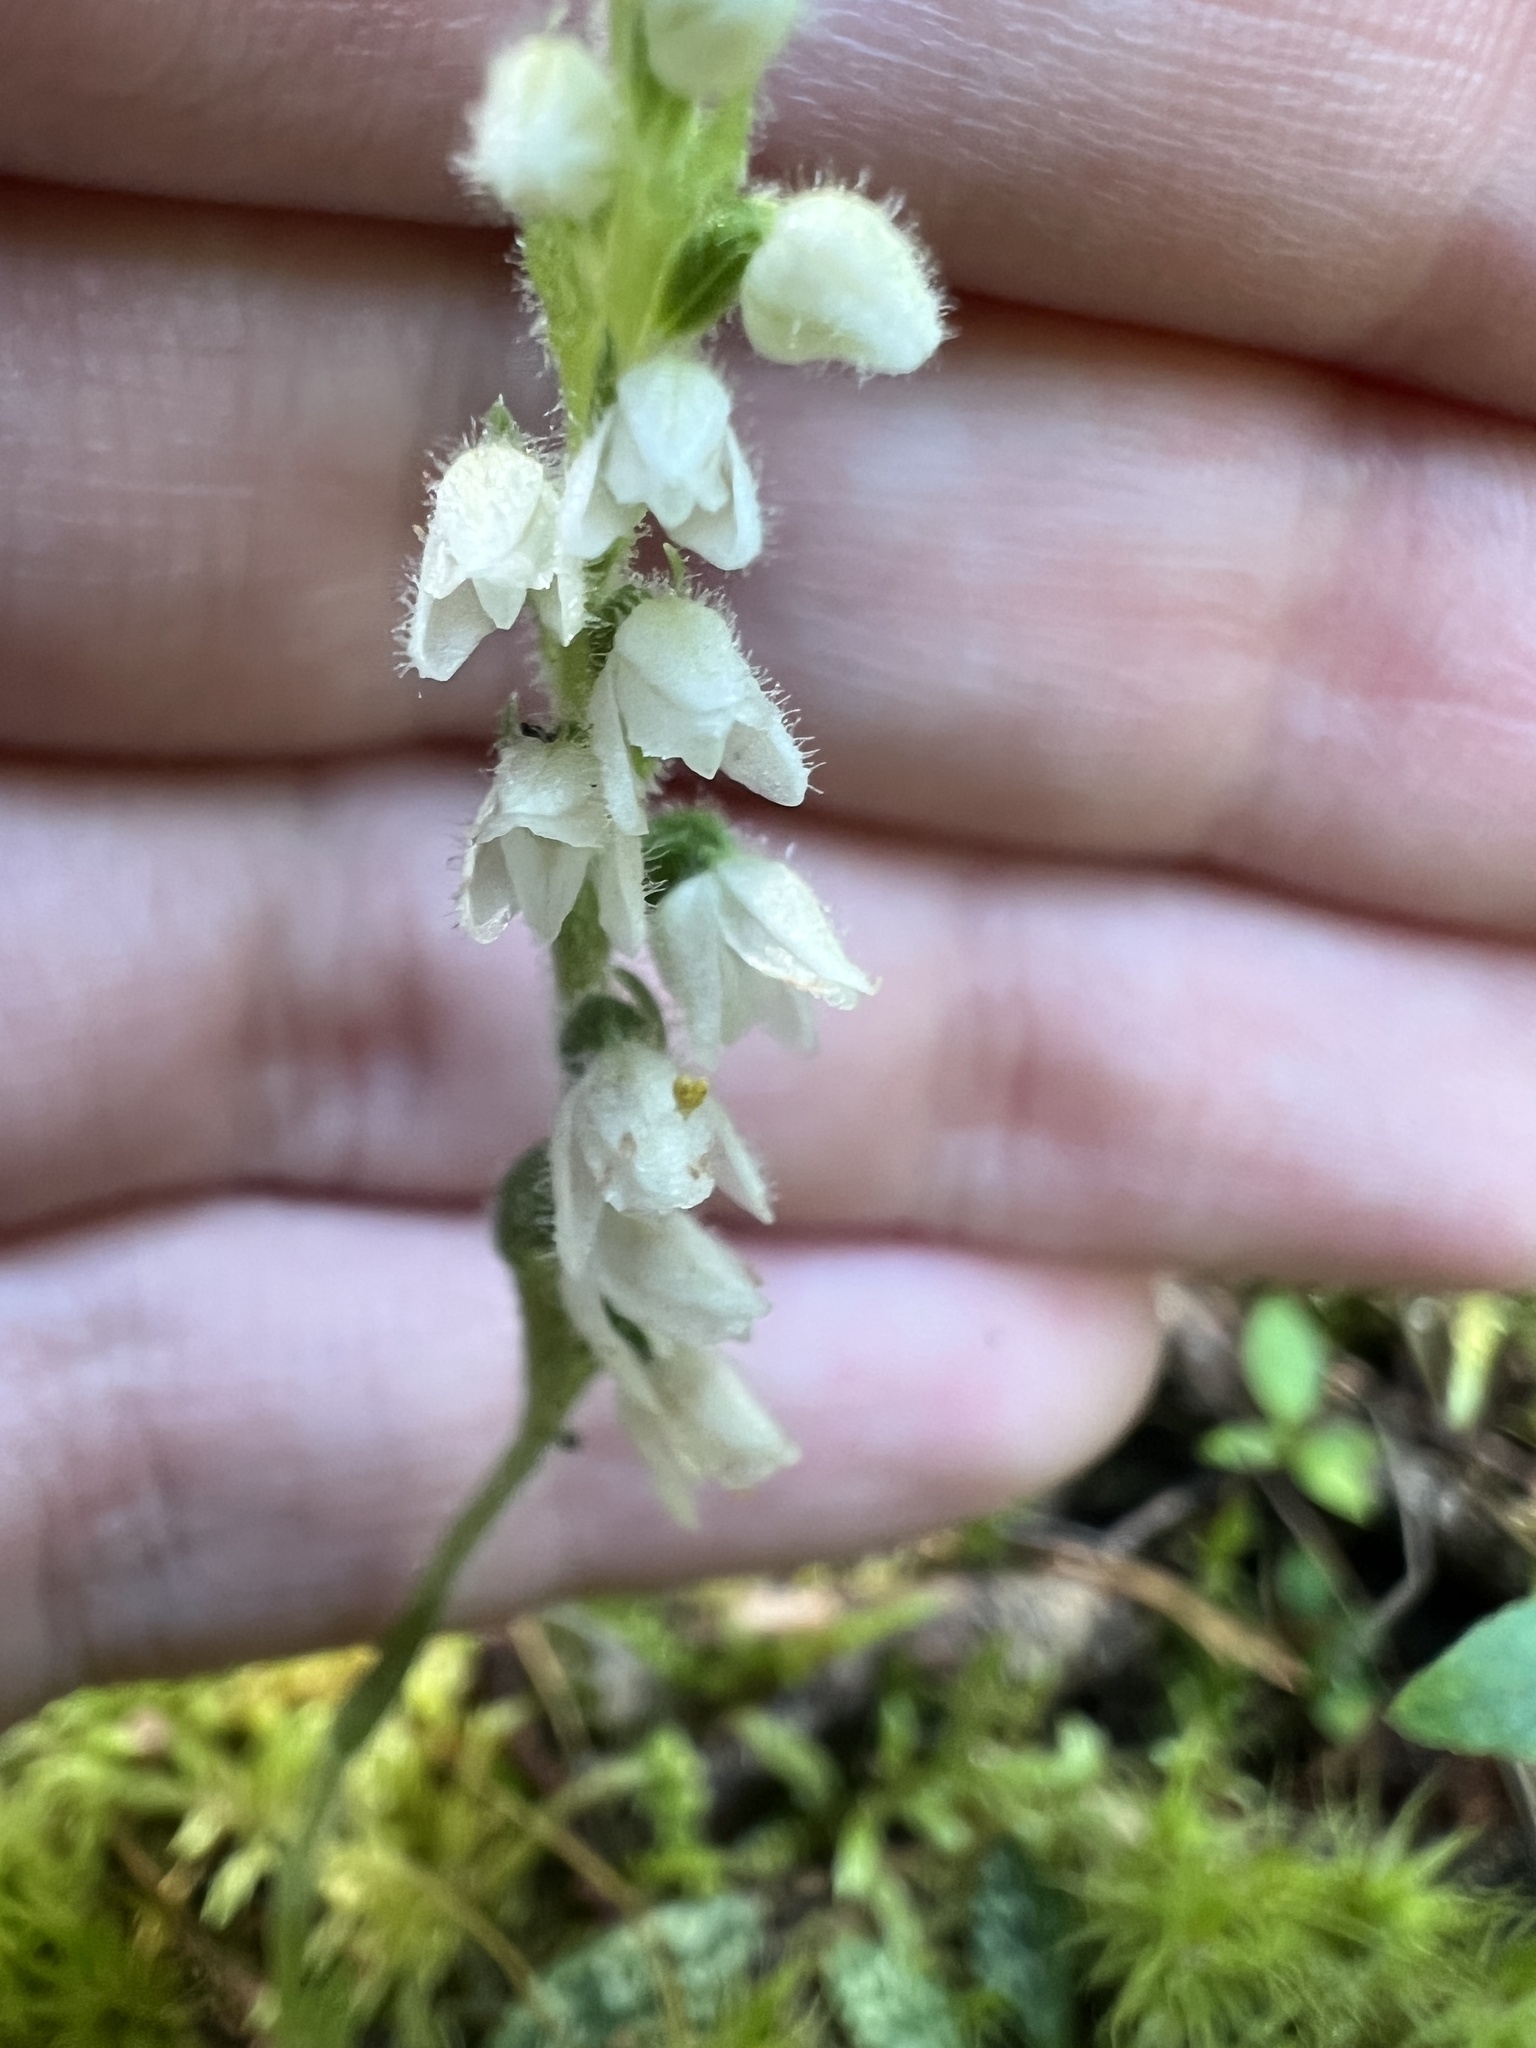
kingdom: Plantae
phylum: Tracheophyta
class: Liliopsida
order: Asparagales
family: Orchidaceae
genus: Goodyera
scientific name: Goodyera repens
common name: Creeping lady's-tresses
